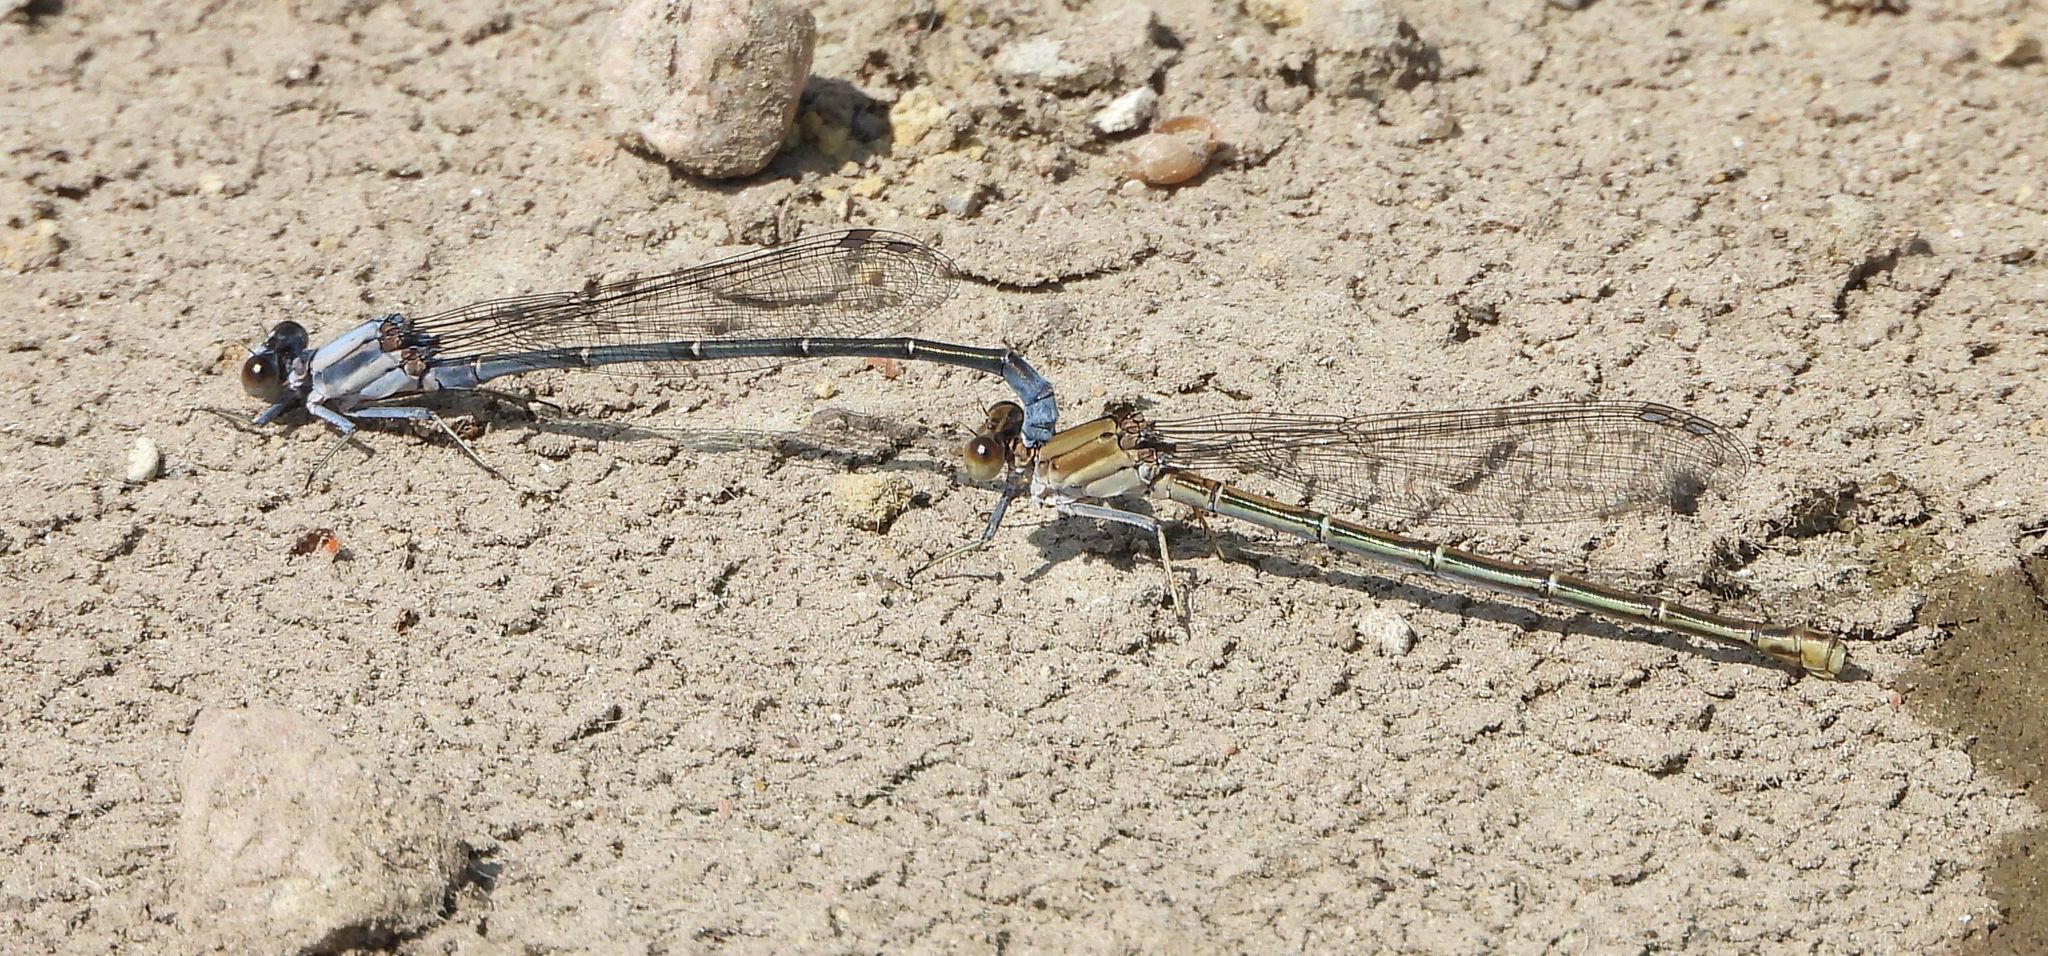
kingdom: Animalia
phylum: Arthropoda
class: Insecta
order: Odonata
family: Coenagrionidae
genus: Argia
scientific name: Argia moesta
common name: Powdered dancer
